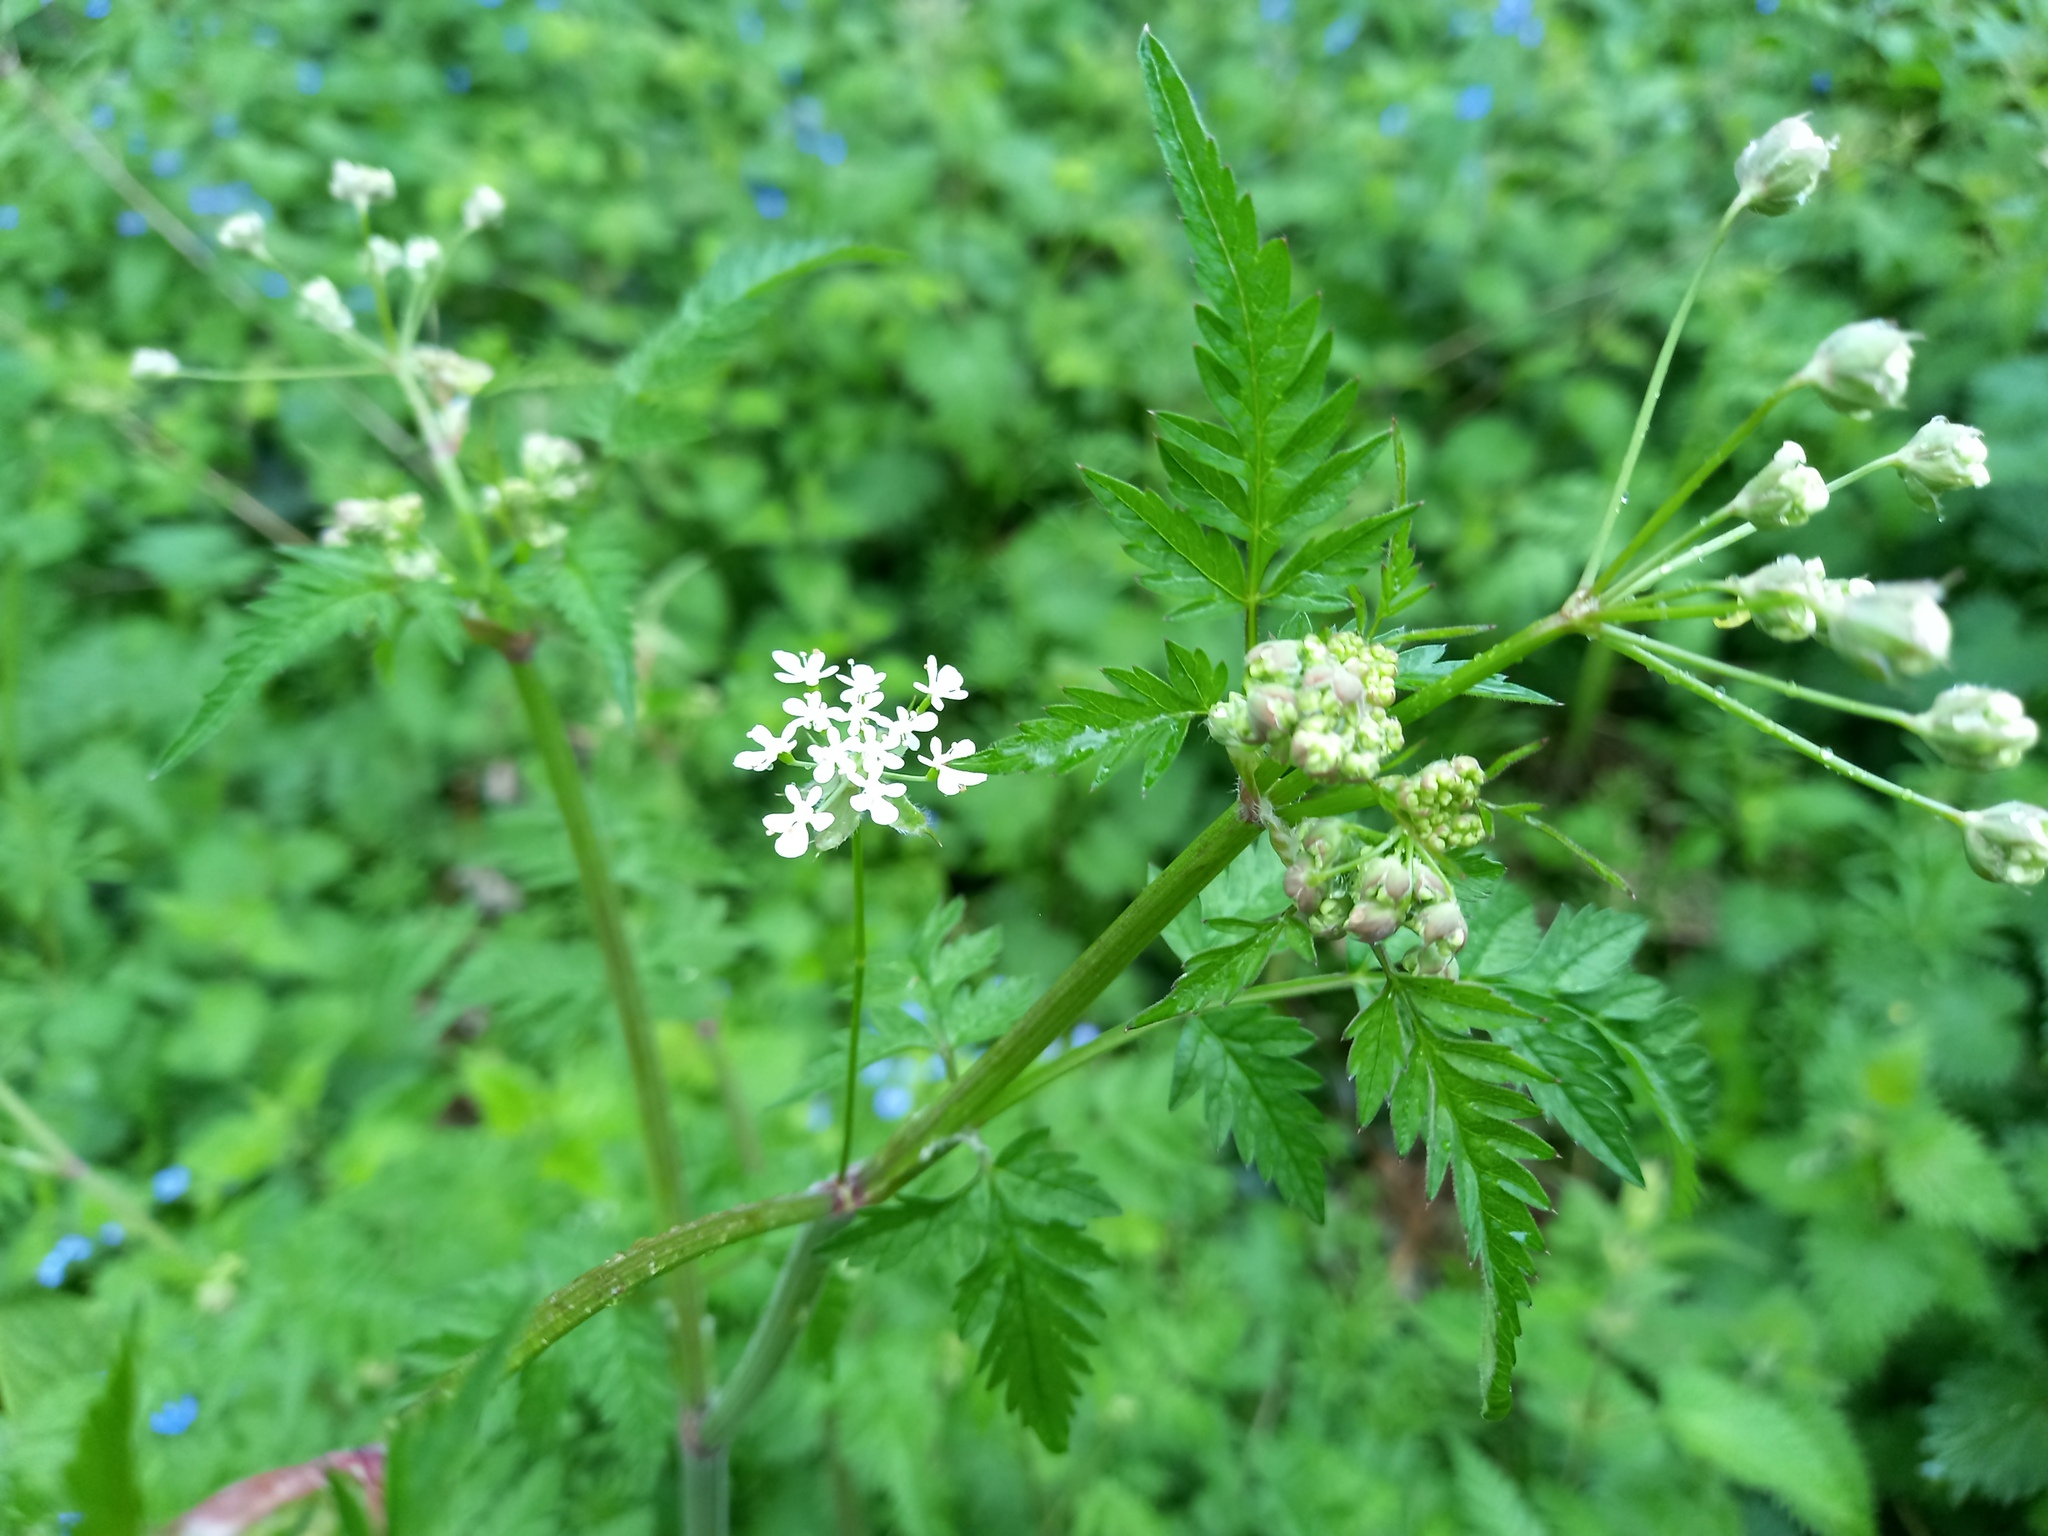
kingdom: Plantae
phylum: Tracheophyta
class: Magnoliopsida
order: Apiales
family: Apiaceae
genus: Anthriscus
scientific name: Anthriscus sylvestris
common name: Cow parsley
